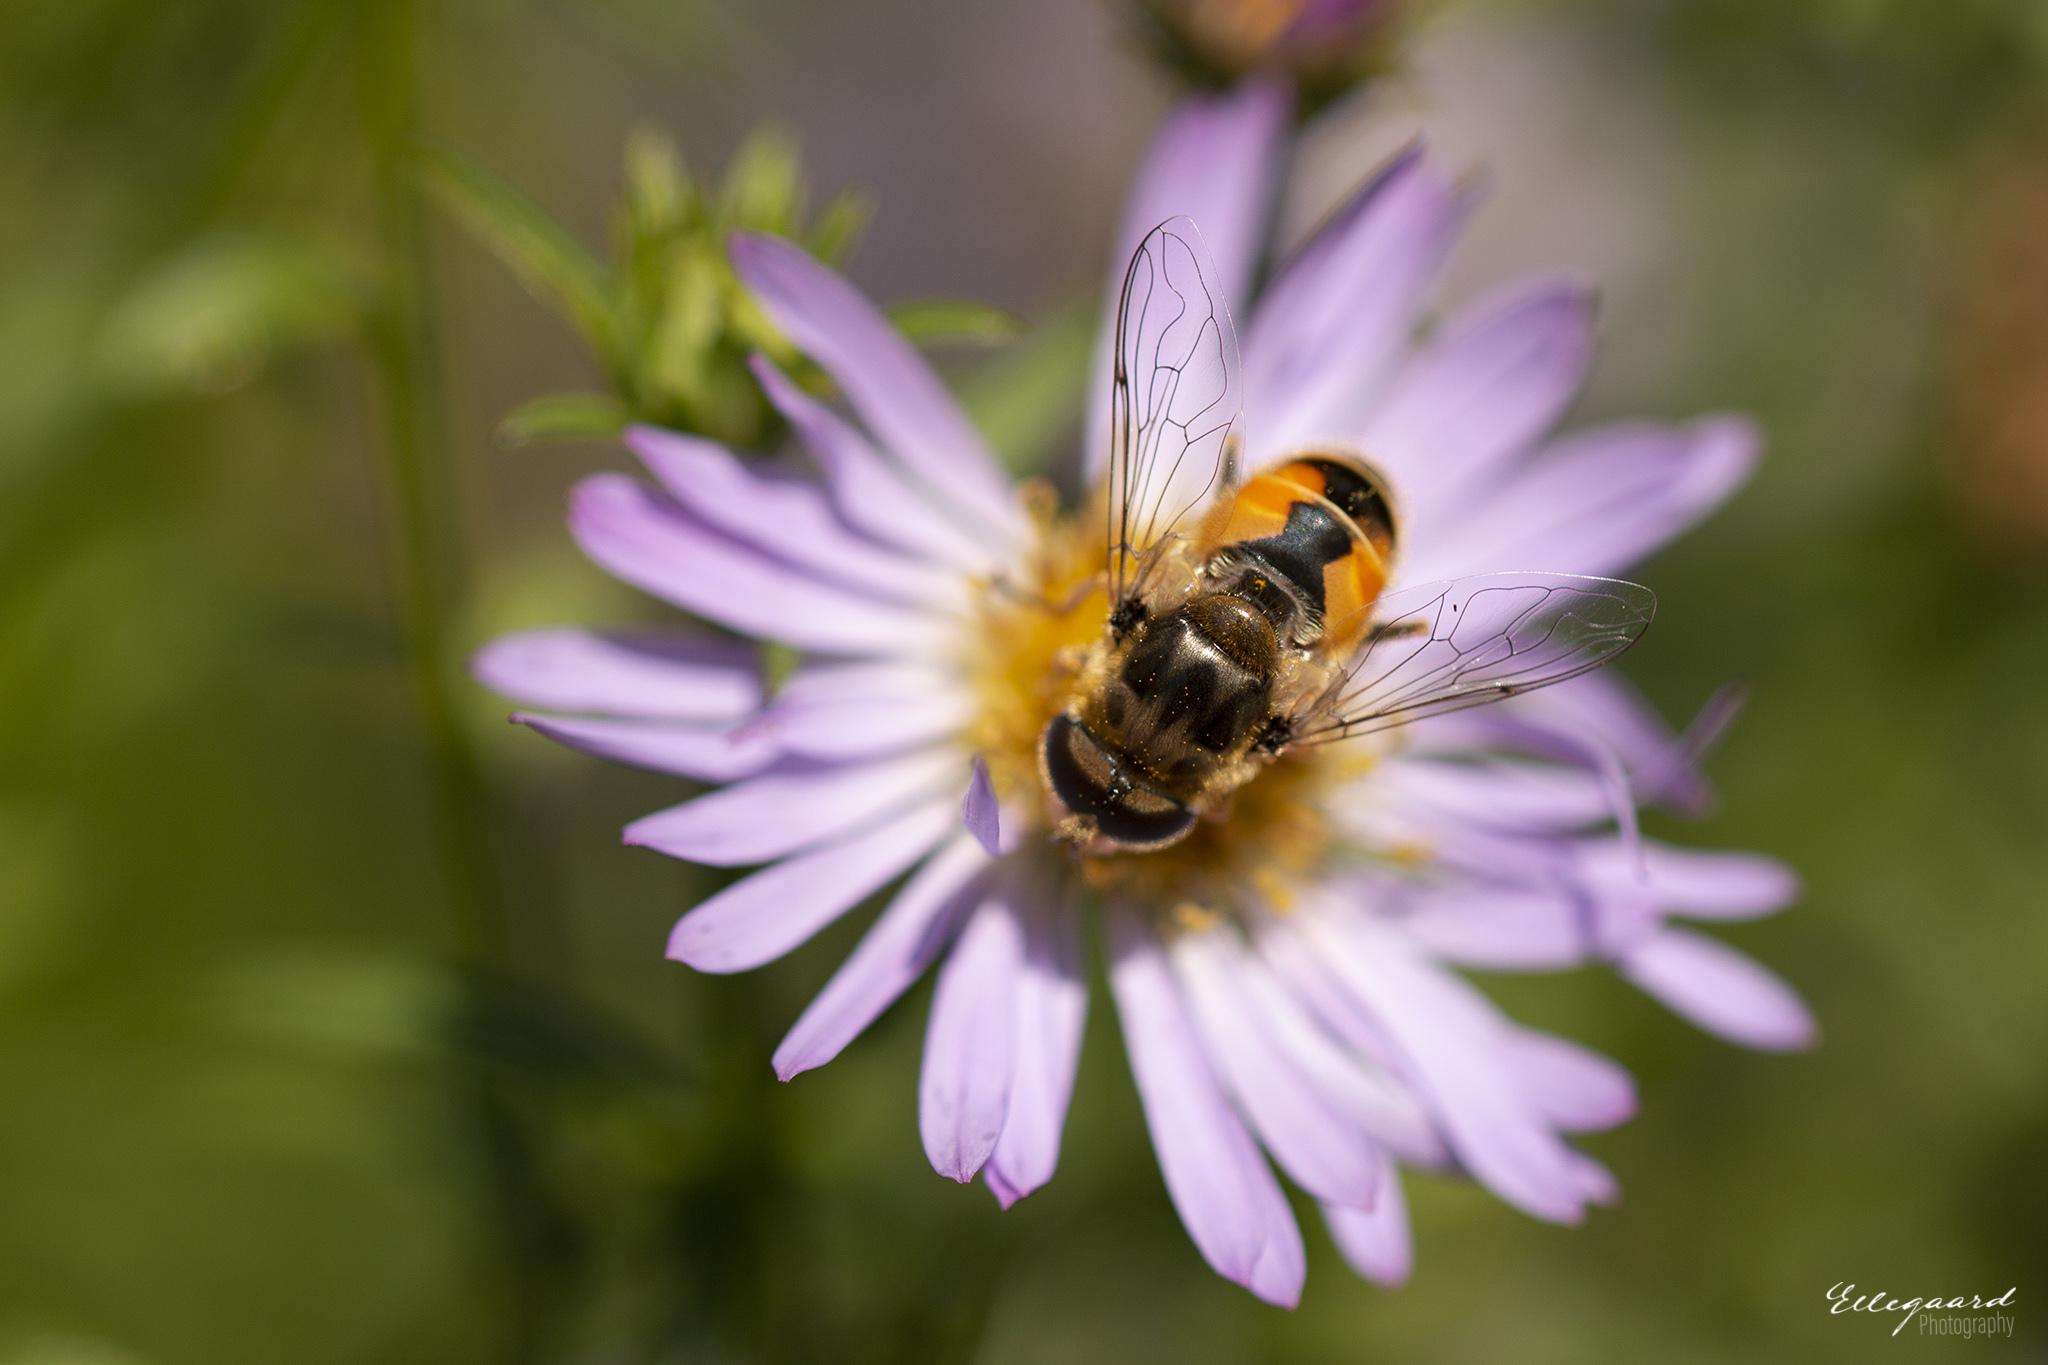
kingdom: Animalia
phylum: Arthropoda
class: Insecta
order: Diptera
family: Syrphidae
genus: Eristalis
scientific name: Eristalis arbustorum
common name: Hover fly
